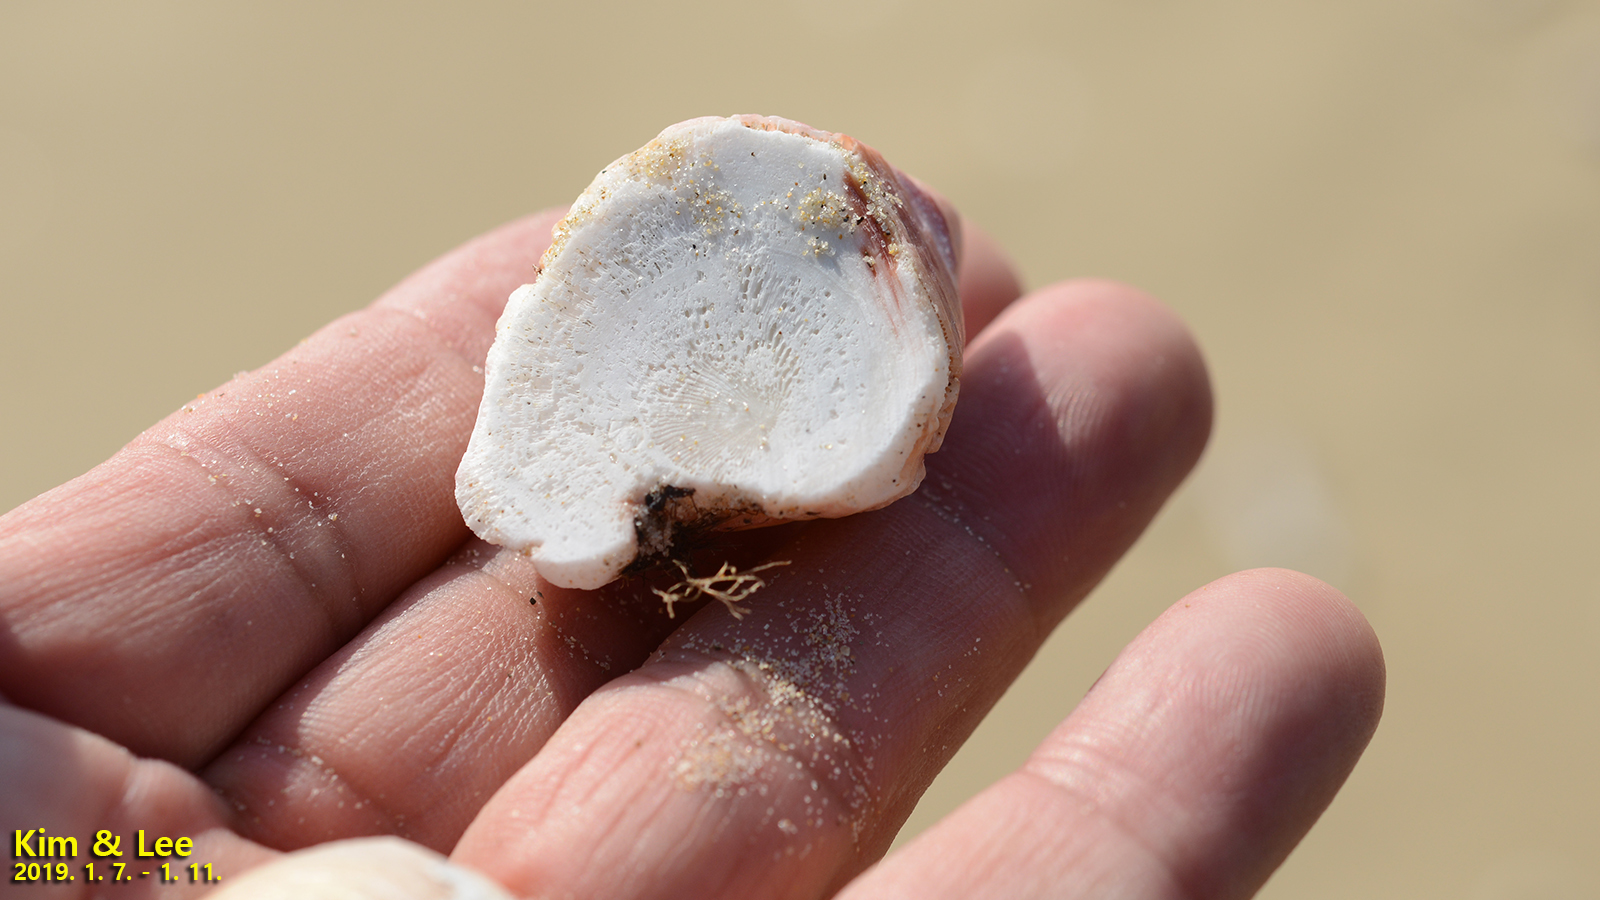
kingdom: Animalia
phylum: Arthropoda
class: Maxillopoda
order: Sessilia
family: Balanidae
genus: Megabalanus
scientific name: Megabalanus rosa
